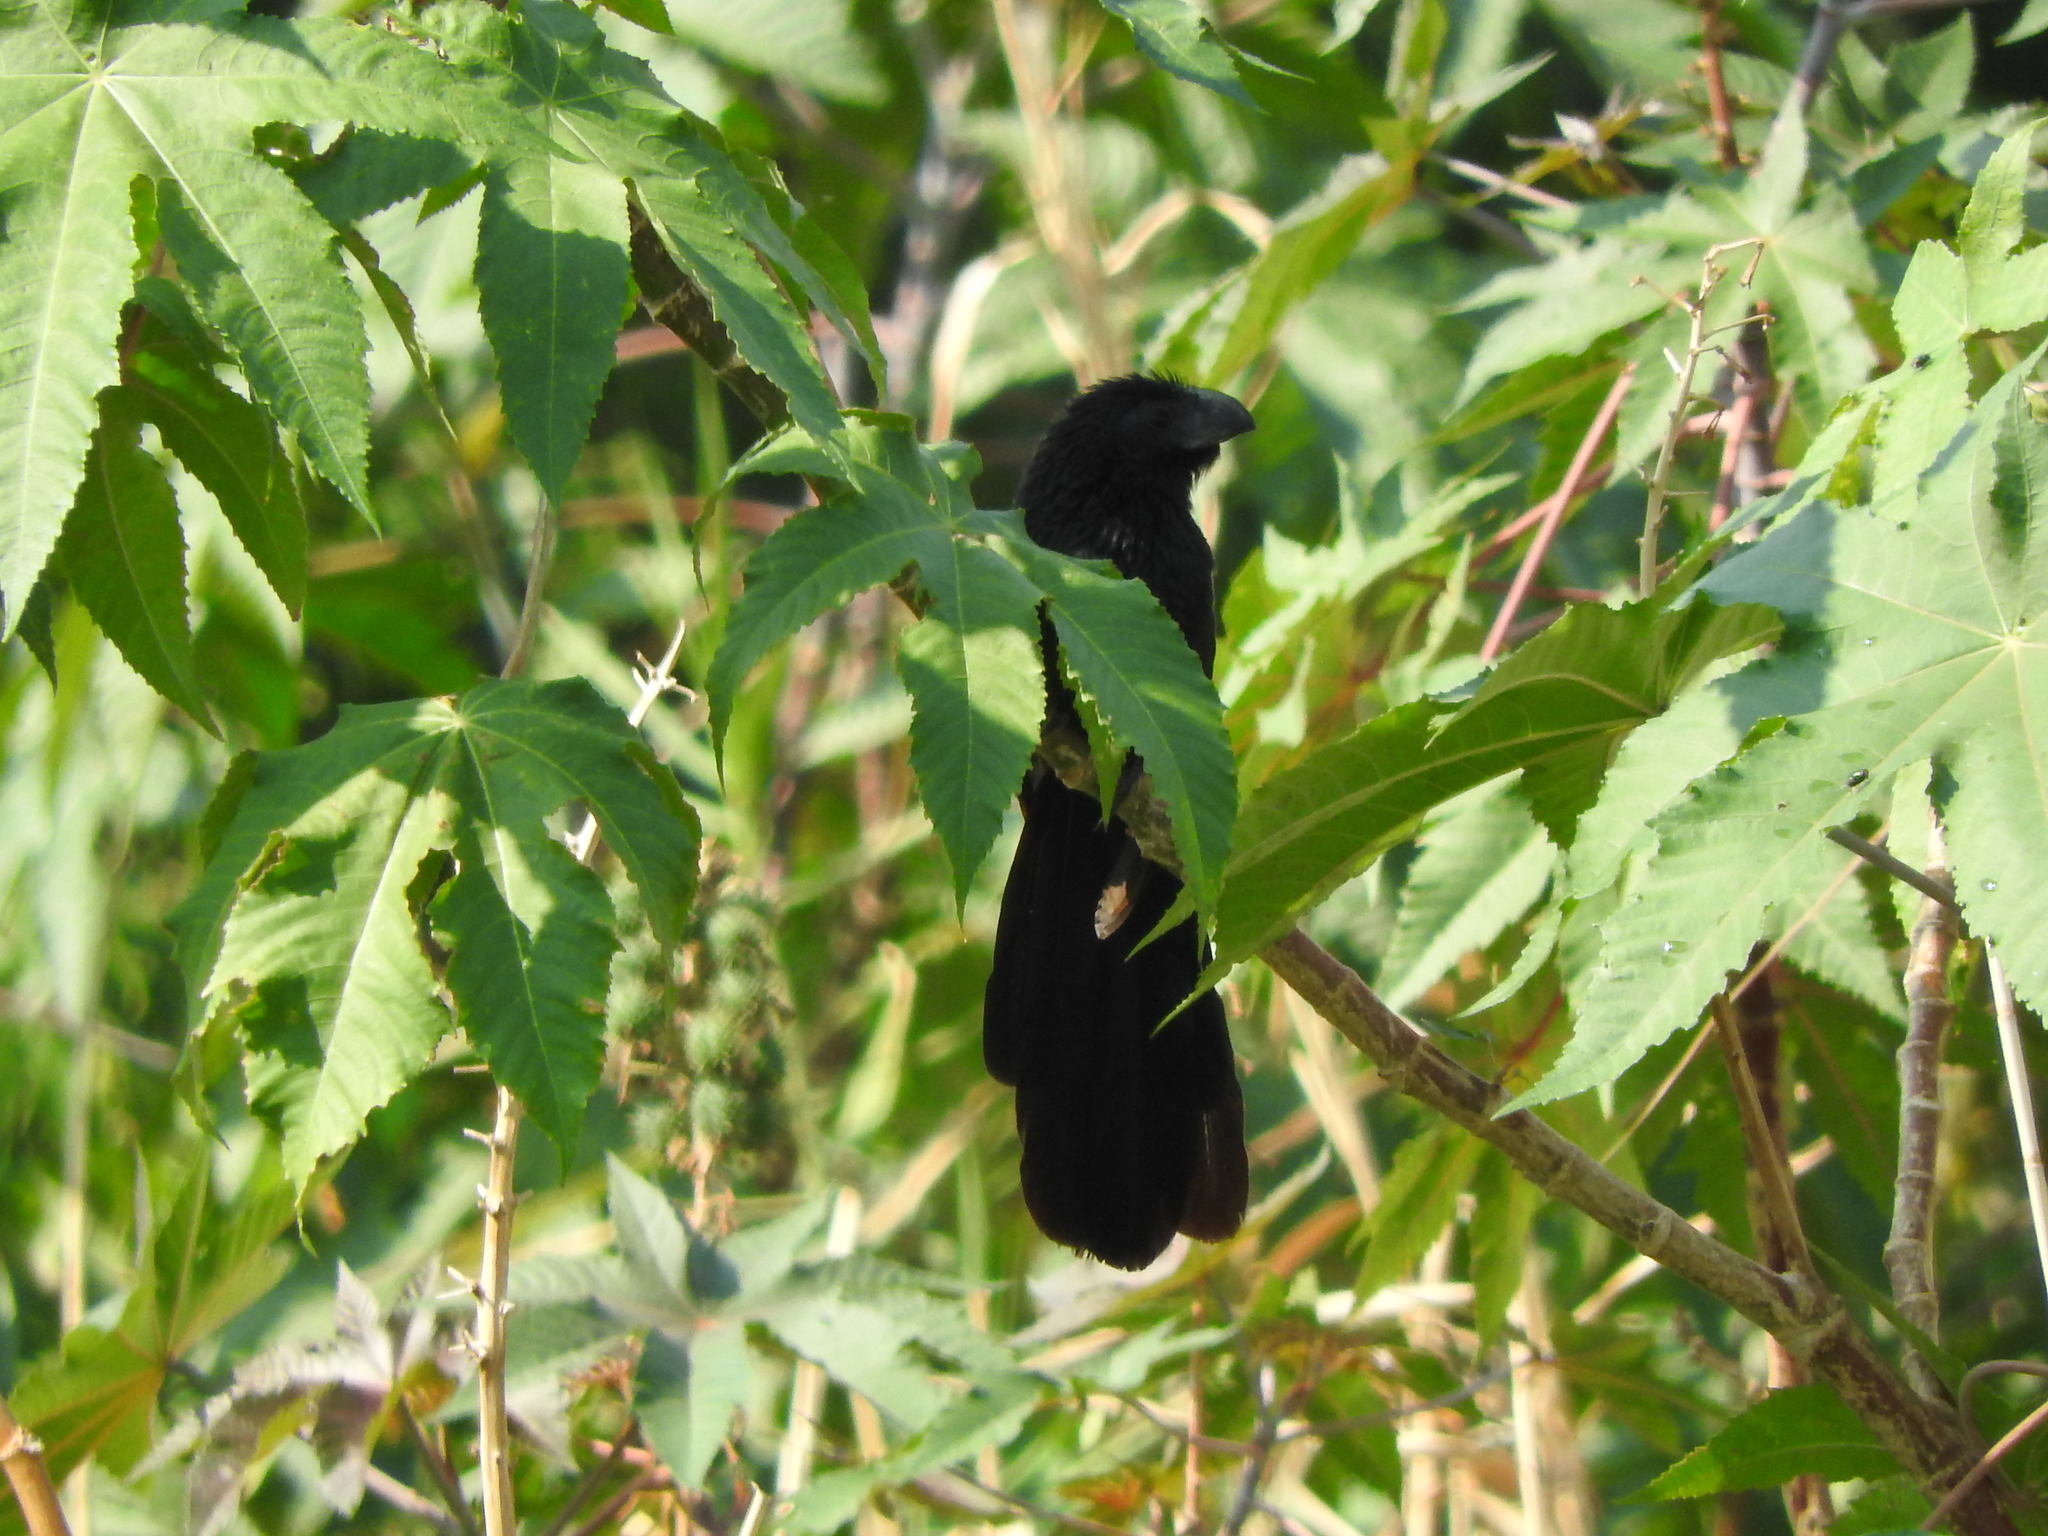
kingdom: Animalia
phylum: Chordata
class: Aves
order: Cuculiformes
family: Cuculidae
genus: Crotophaga
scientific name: Crotophaga sulcirostris
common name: Groove-billed ani
